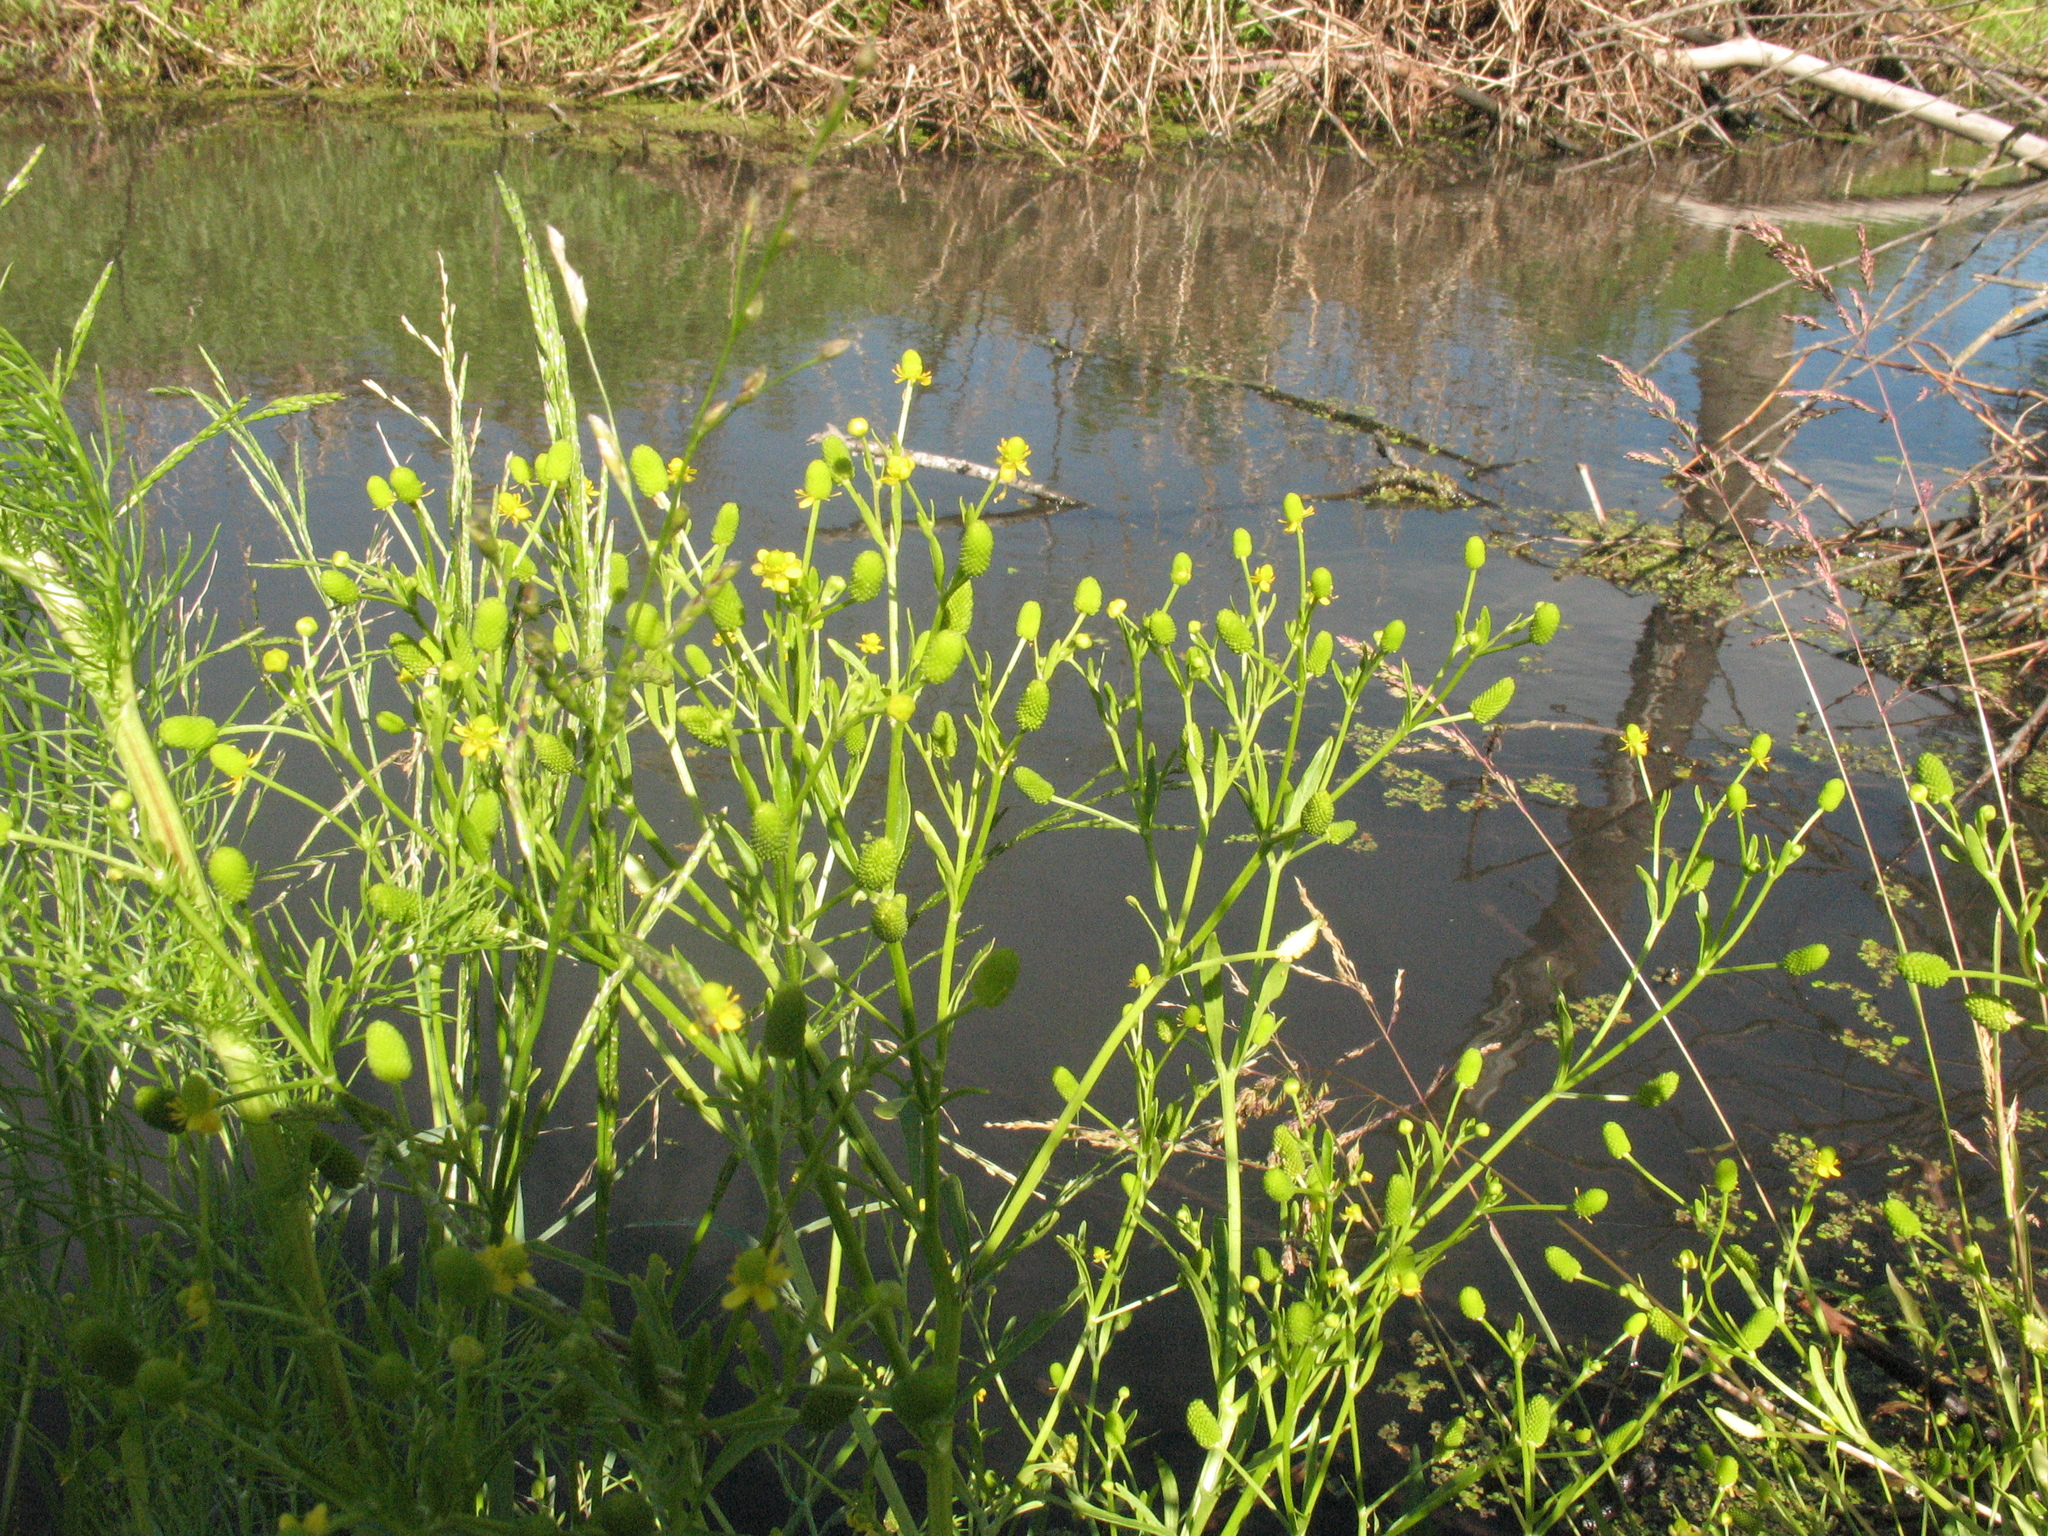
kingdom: Plantae
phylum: Tracheophyta
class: Magnoliopsida
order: Ranunculales
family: Ranunculaceae
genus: Ranunculus
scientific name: Ranunculus sceleratus
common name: Celery-leaved buttercup
